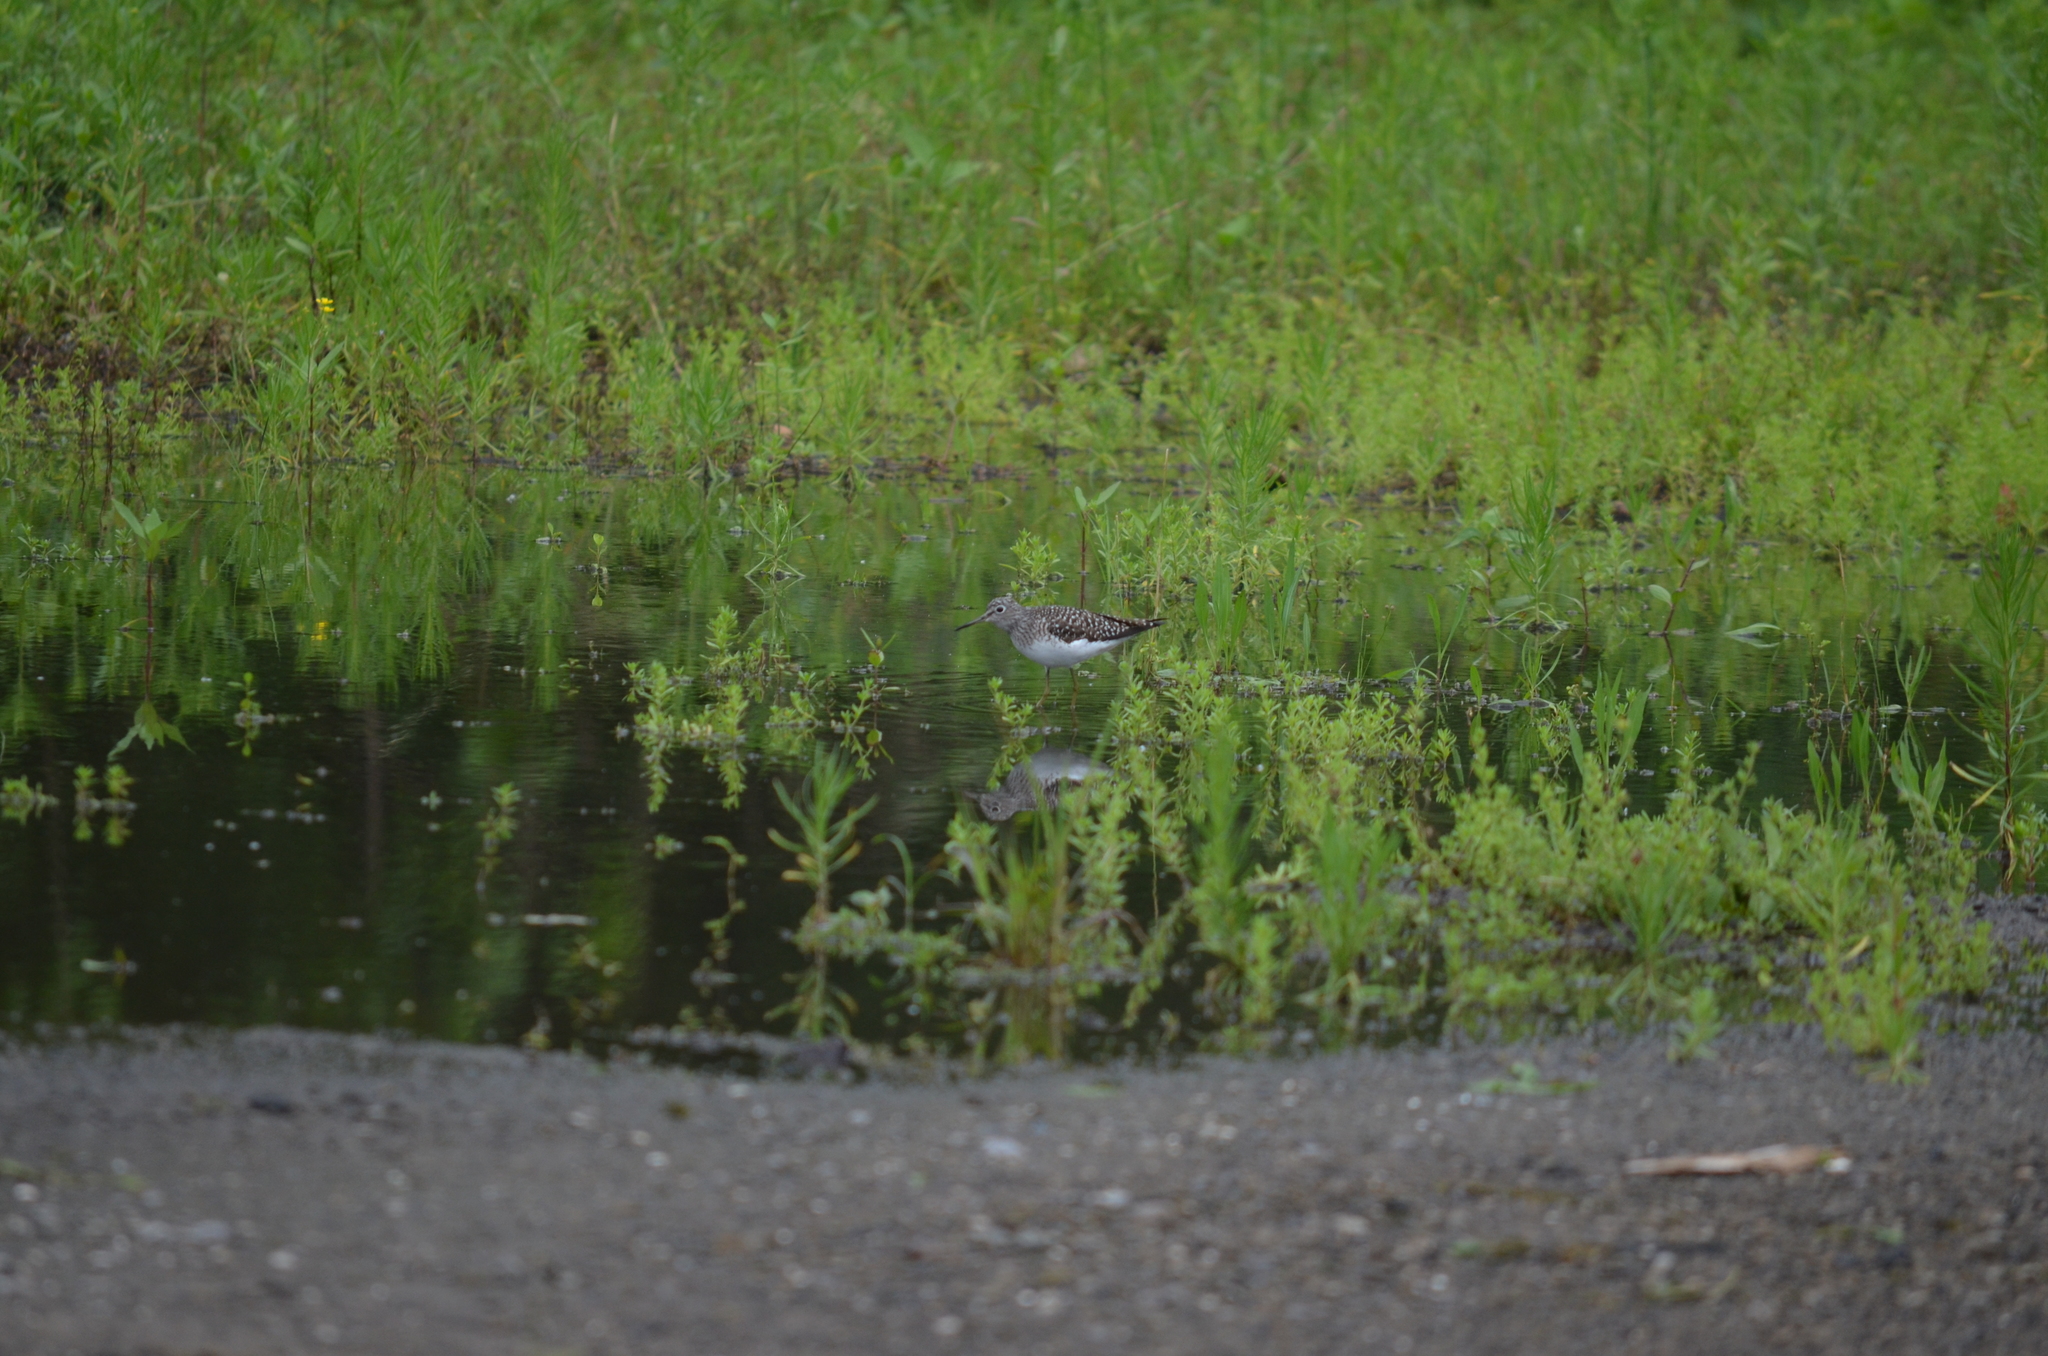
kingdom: Animalia
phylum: Chordata
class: Aves
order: Charadriiformes
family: Scolopacidae
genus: Tringa
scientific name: Tringa solitaria
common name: Solitary sandpiper
